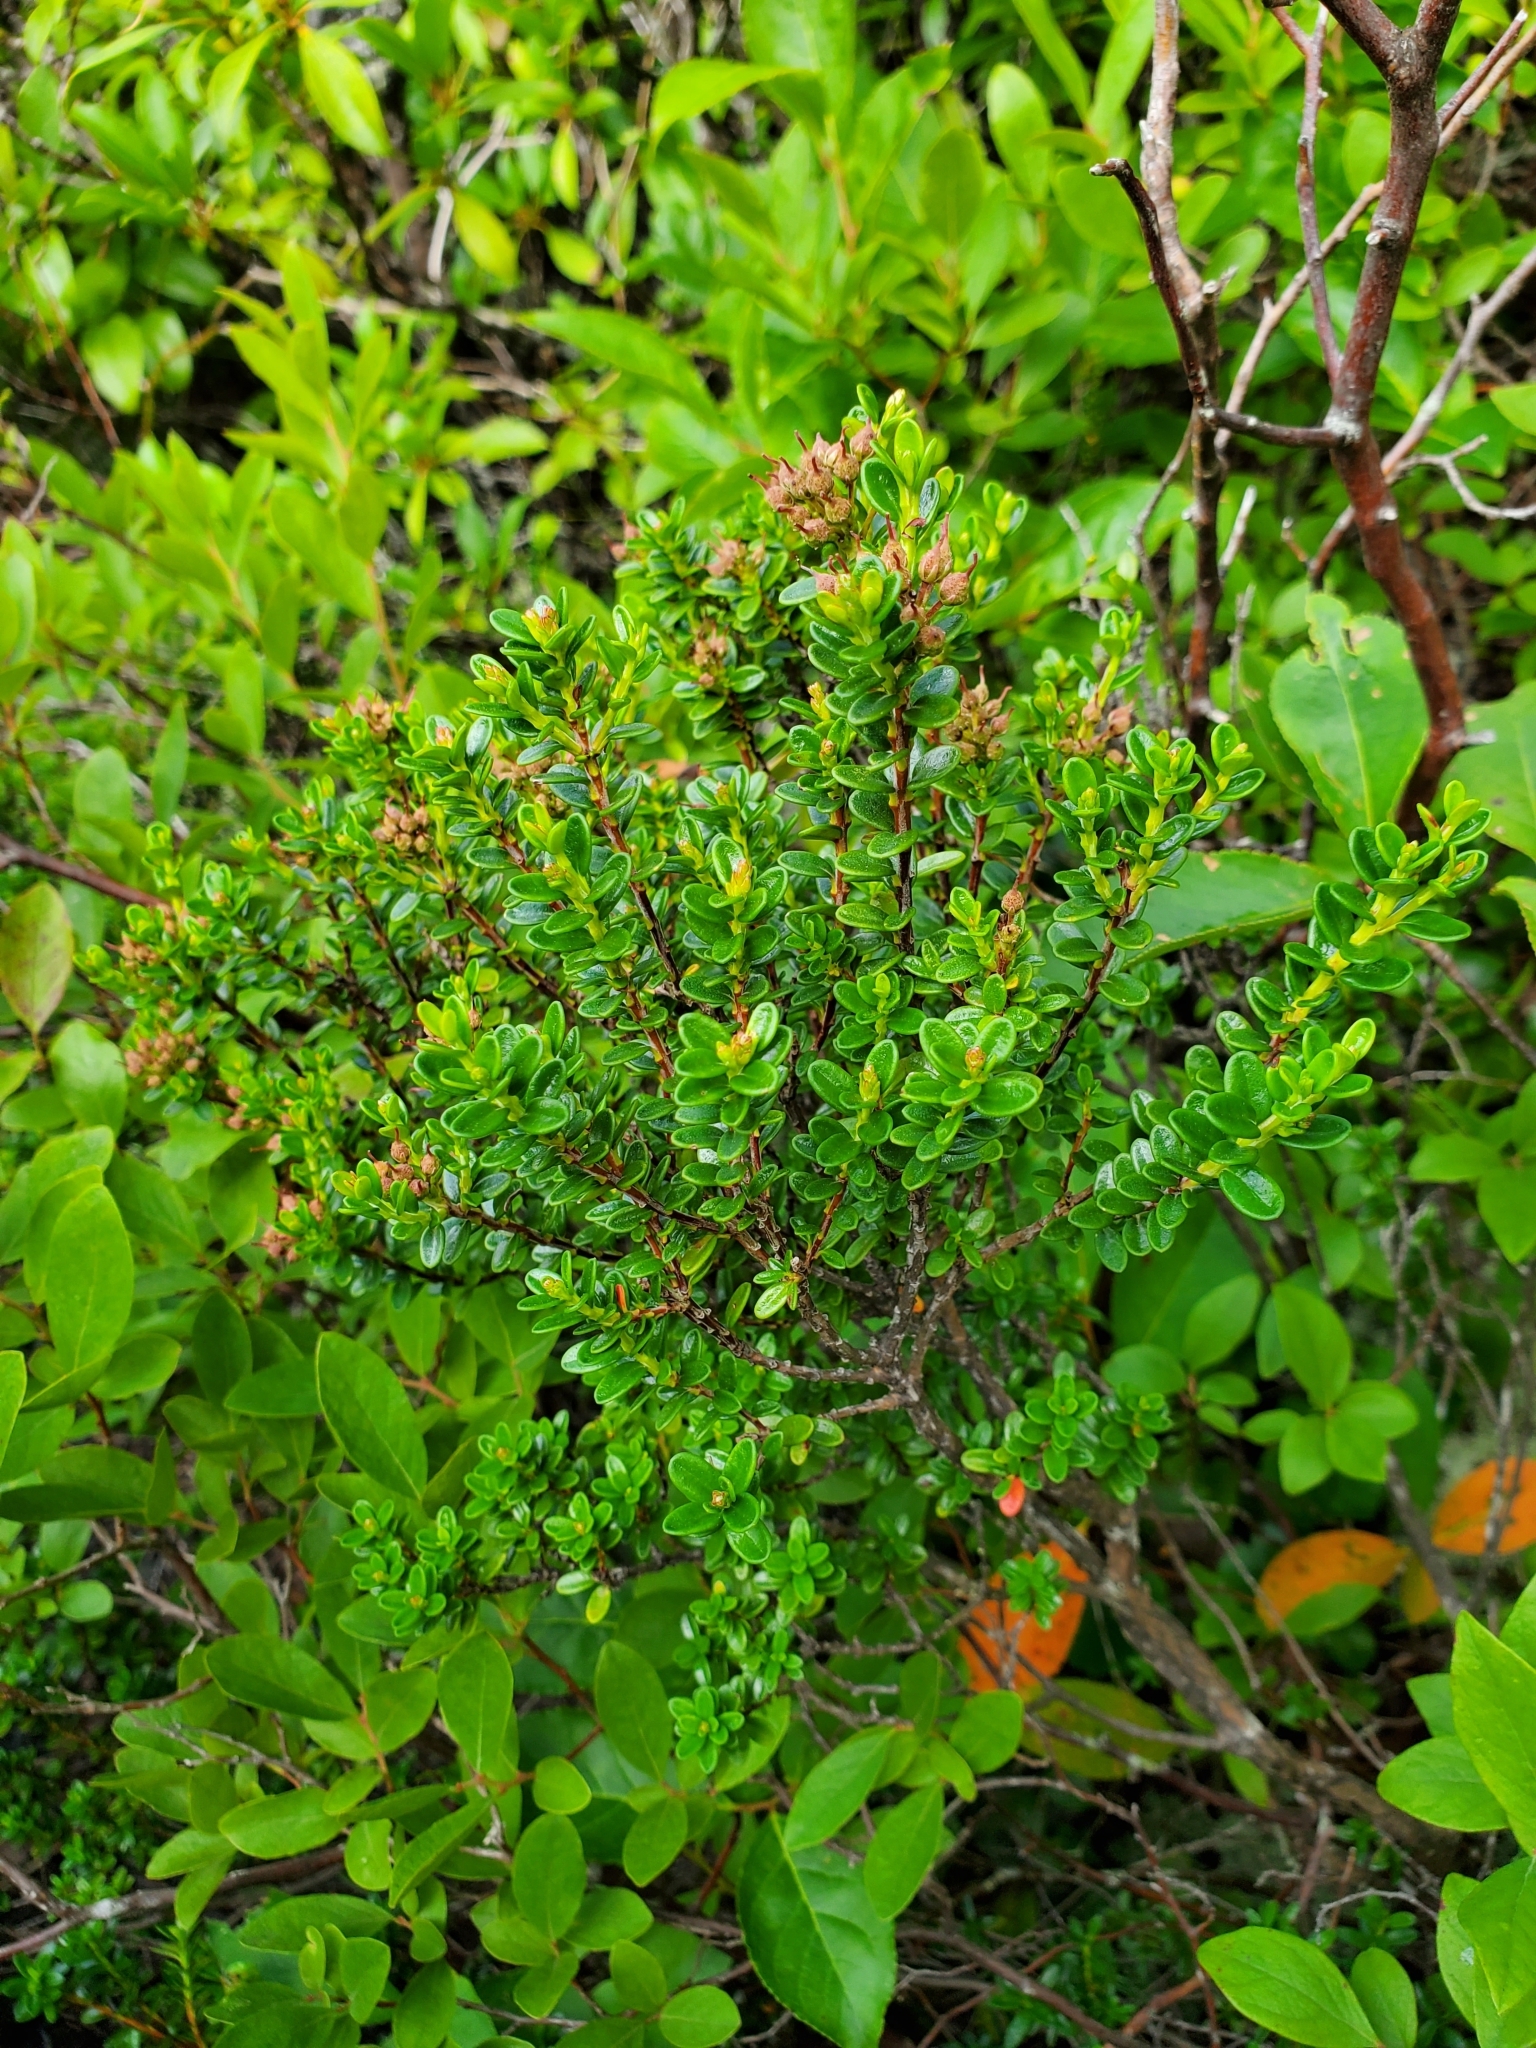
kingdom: Plantae
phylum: Tracheophyta
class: Magnoliopsida
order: Ericales
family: Ericaceae
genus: Kalmia
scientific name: Kalmia buxifolia
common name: Sandmyrtle
